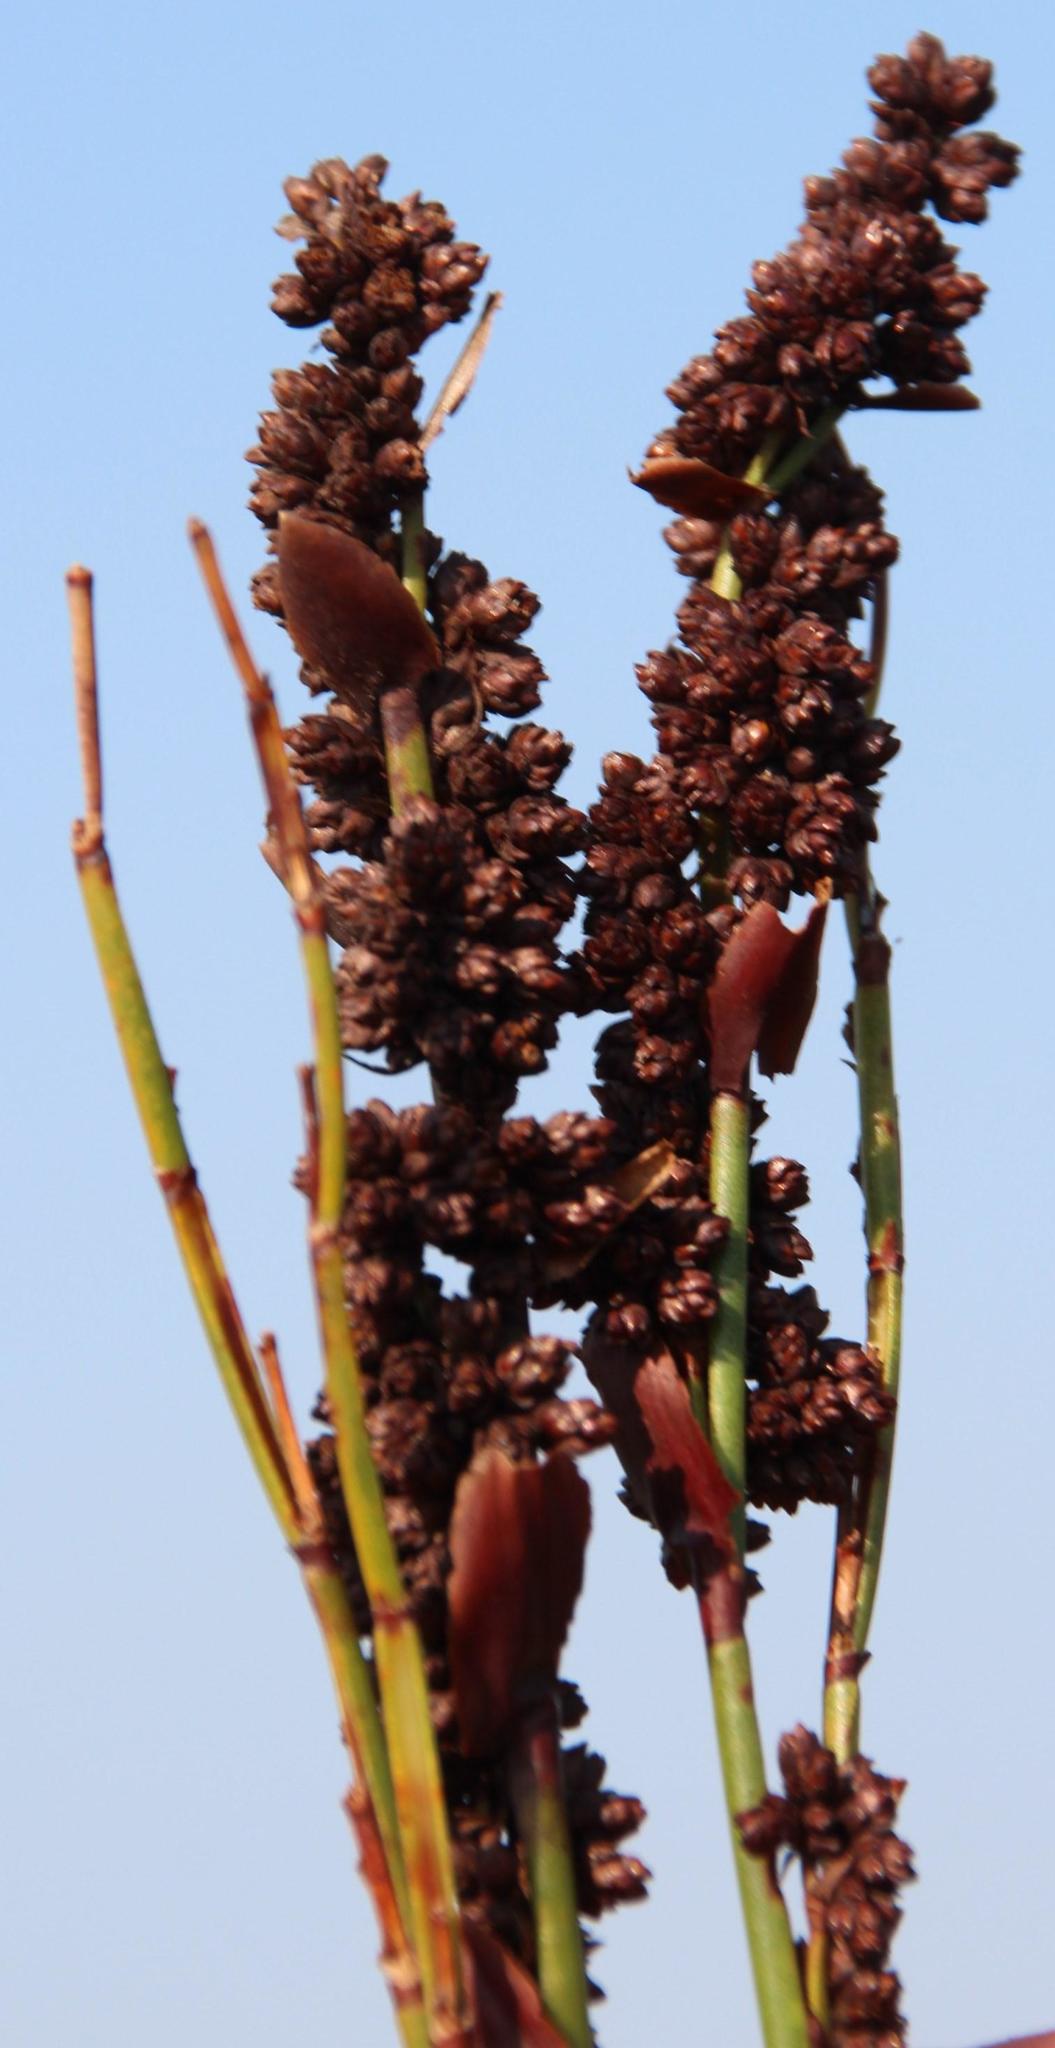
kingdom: Plantae
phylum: Tracheophyta
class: Liliopsida
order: Poales
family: Restionaceae
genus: Elegia
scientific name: Elegia hookeriana
